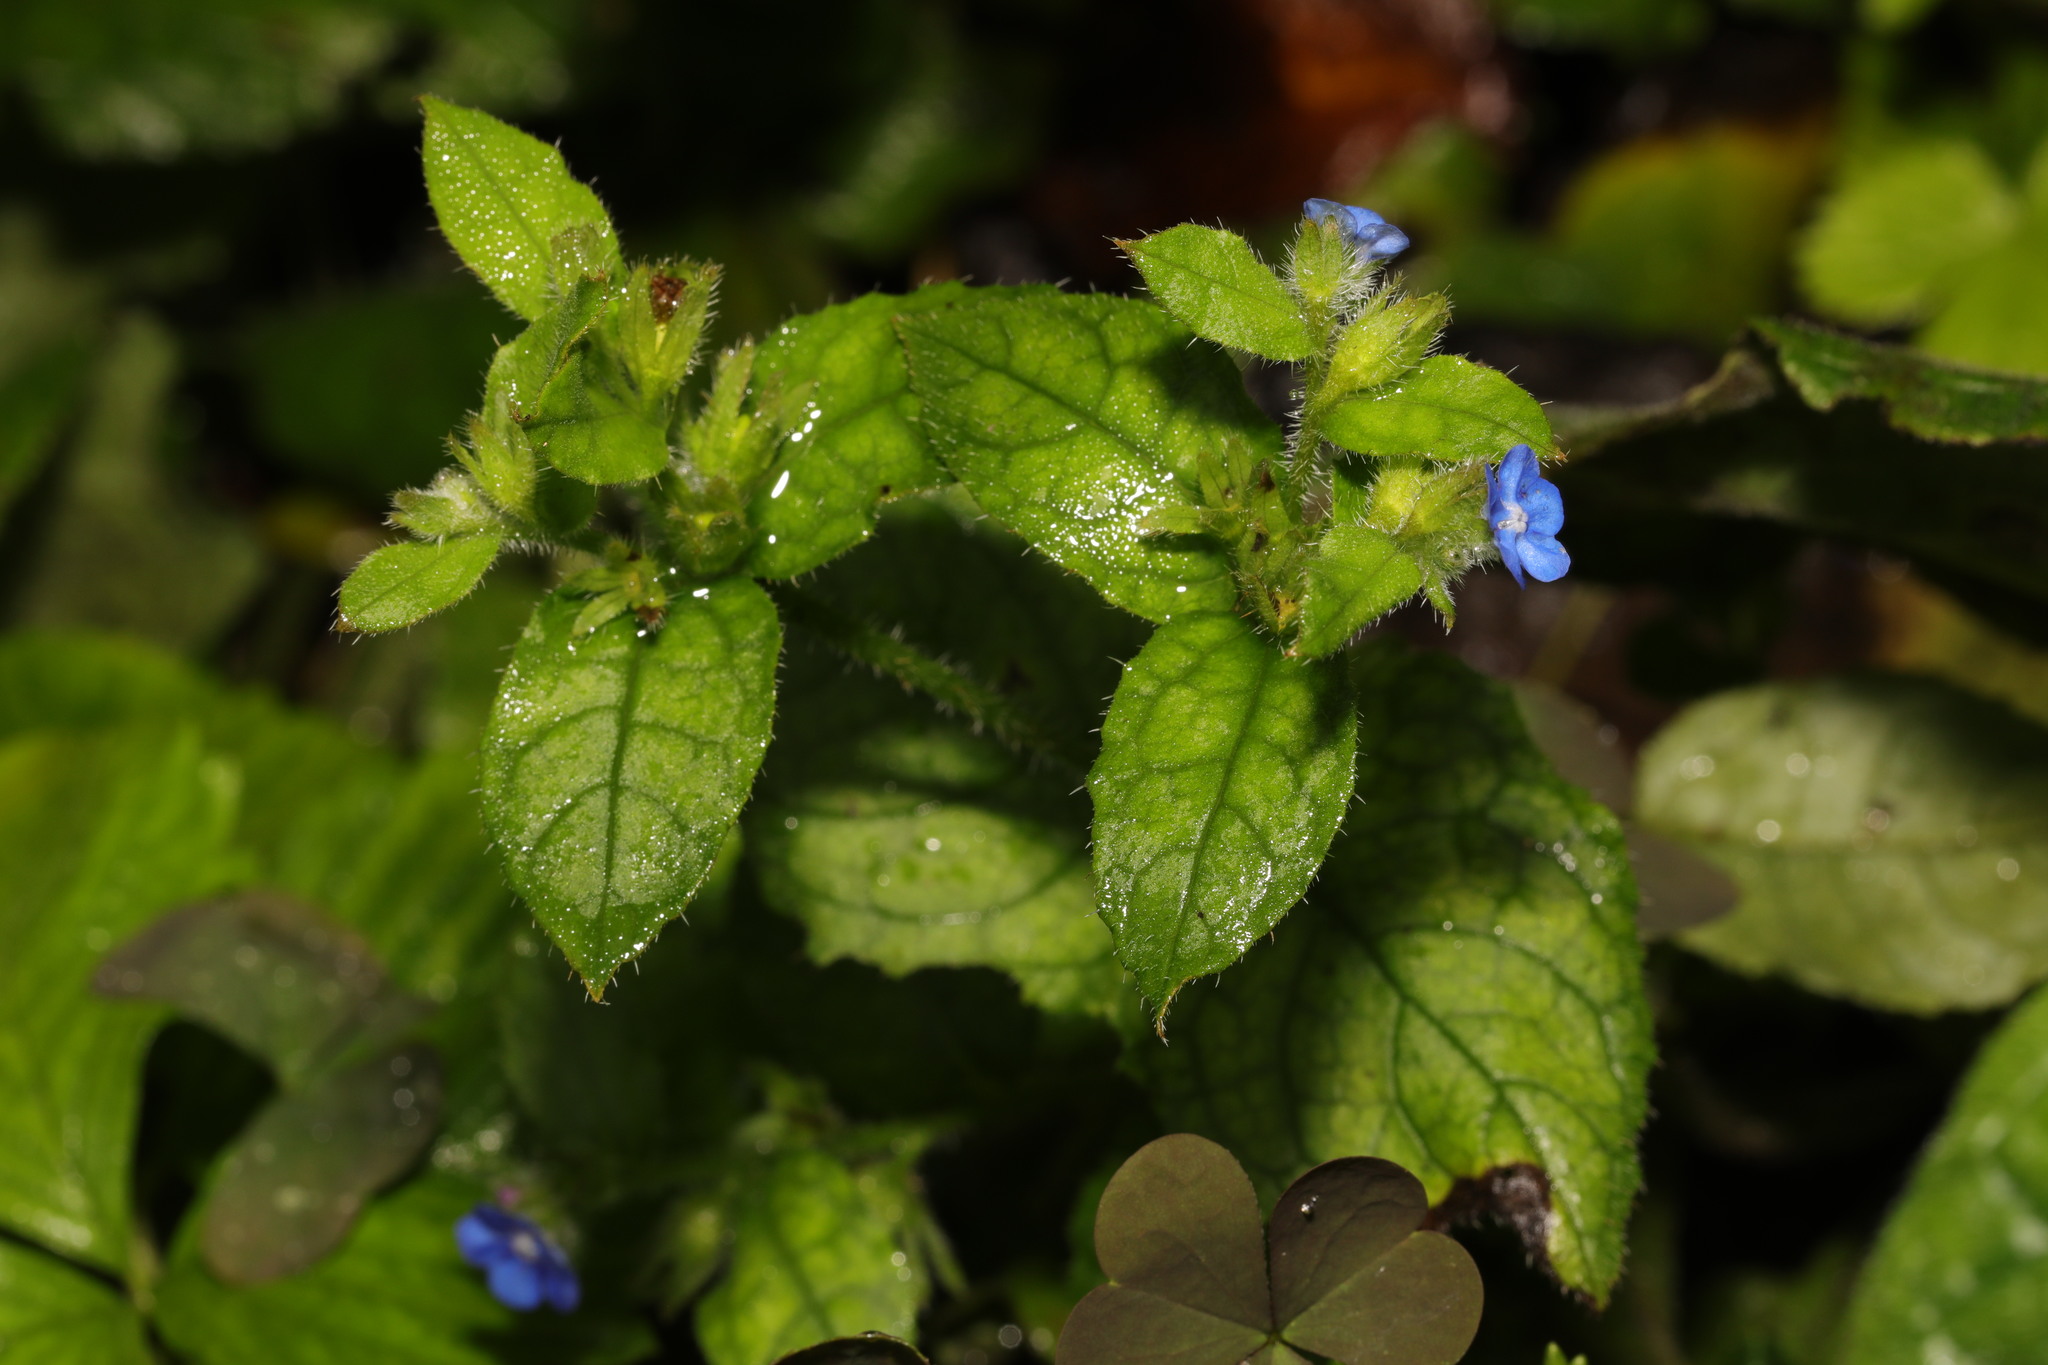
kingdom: Plantae
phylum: Tracheophyta
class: Magnoliopsida
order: Boraginales
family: Boraginaceae
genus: Pentaglottis
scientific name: Pentaglottis sempervirens
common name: Green alkanet
